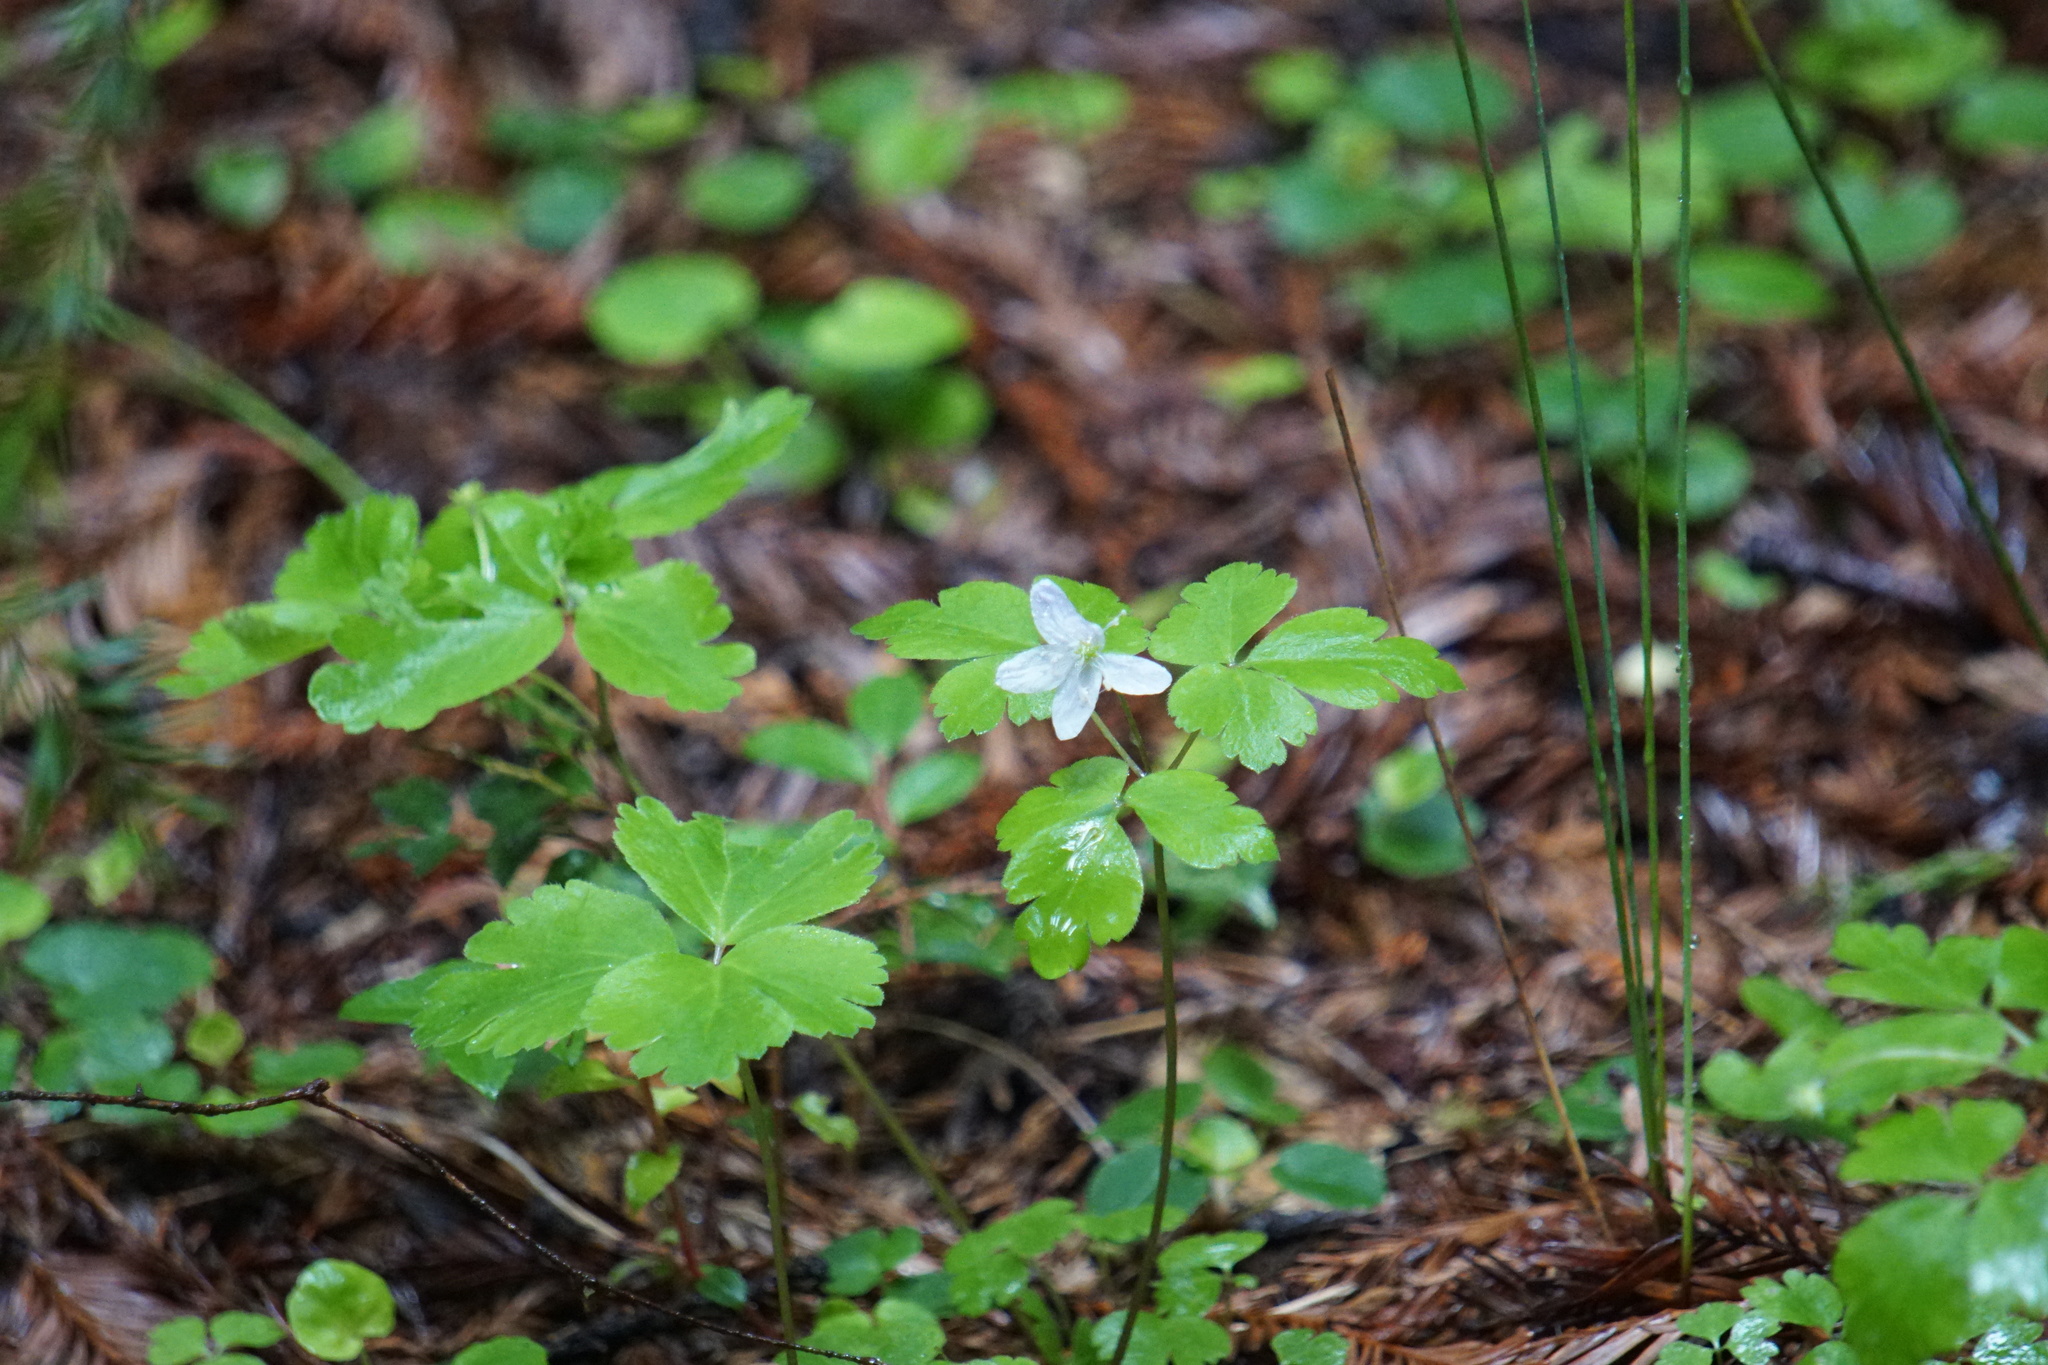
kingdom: Plantae
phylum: Tracheophyta
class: Magnoliopsida
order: Ranunculales
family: Ranunculaceae
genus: Anemone
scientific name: Anemone oregana
